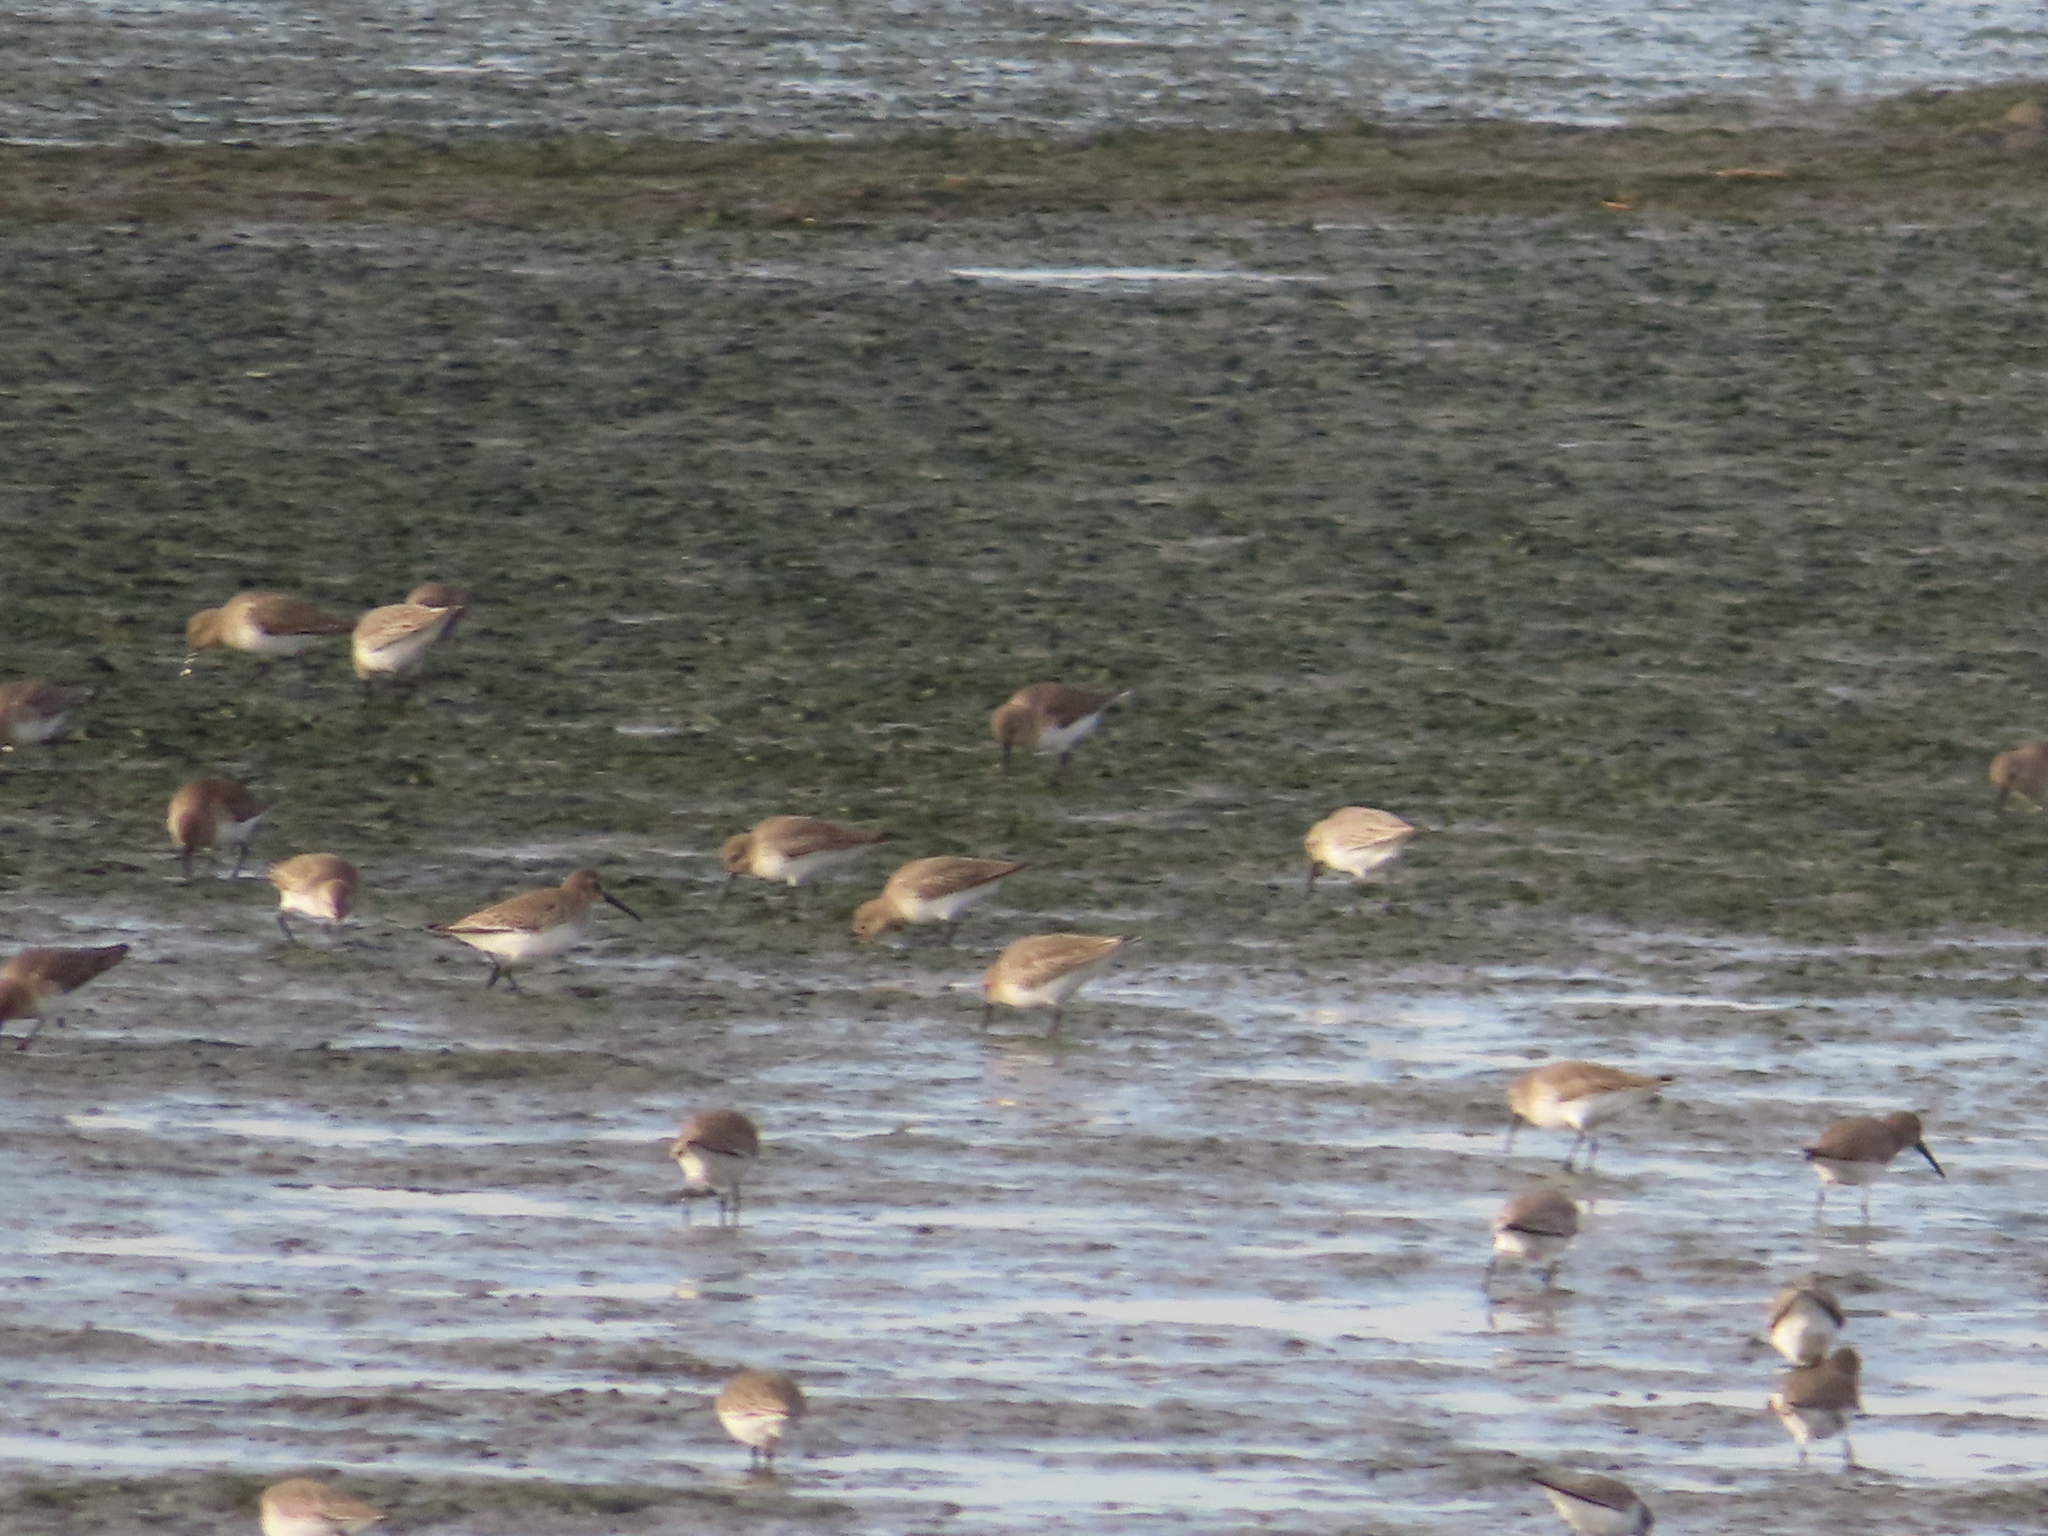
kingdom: Animalia
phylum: Chordata
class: Aves
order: Charadriiformes
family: Scolopacidae
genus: Calidris
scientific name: Calidris alpina
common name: Dunlin
